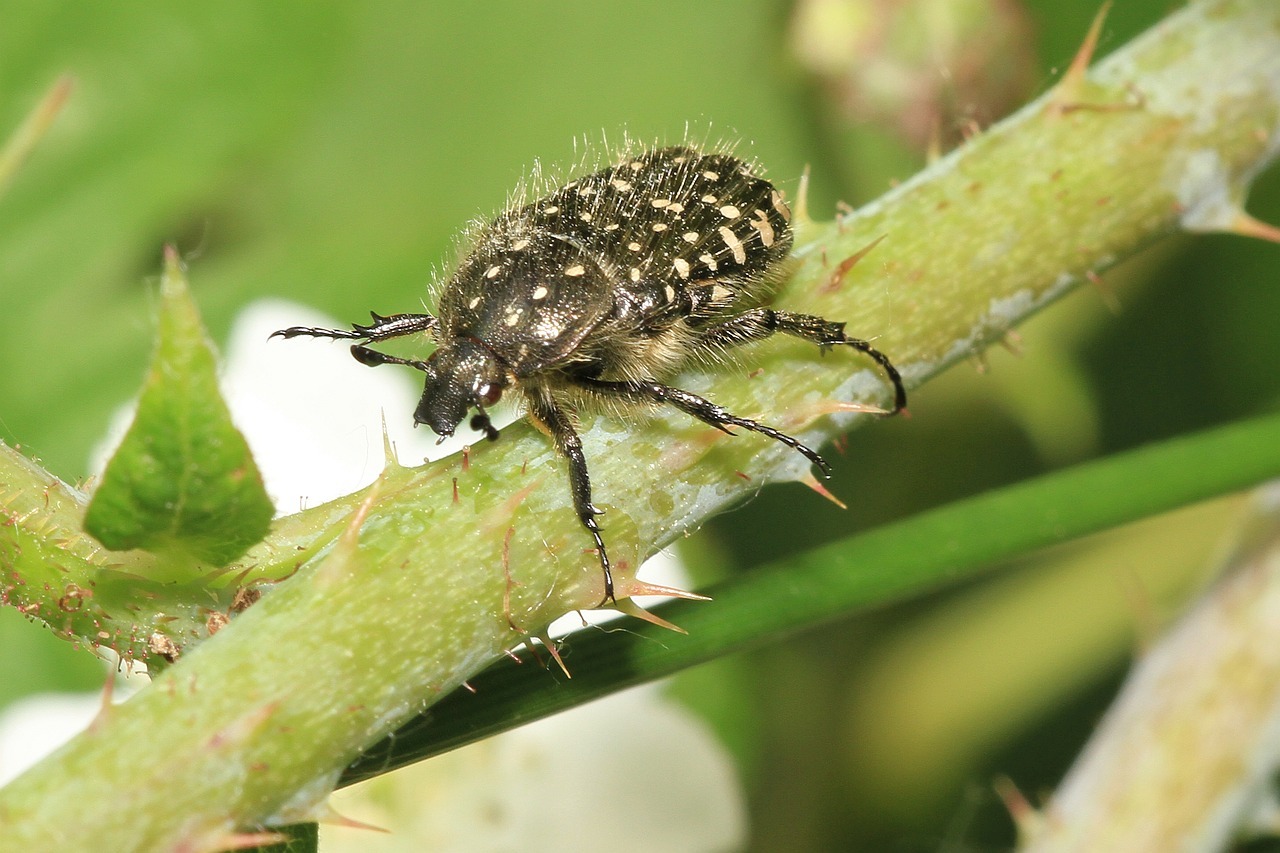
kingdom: Animalia
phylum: Arthropoda
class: Insecta
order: Coleoptera
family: Scarabaeidae
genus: Oxythyrea
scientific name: Oxythyrea funesta
